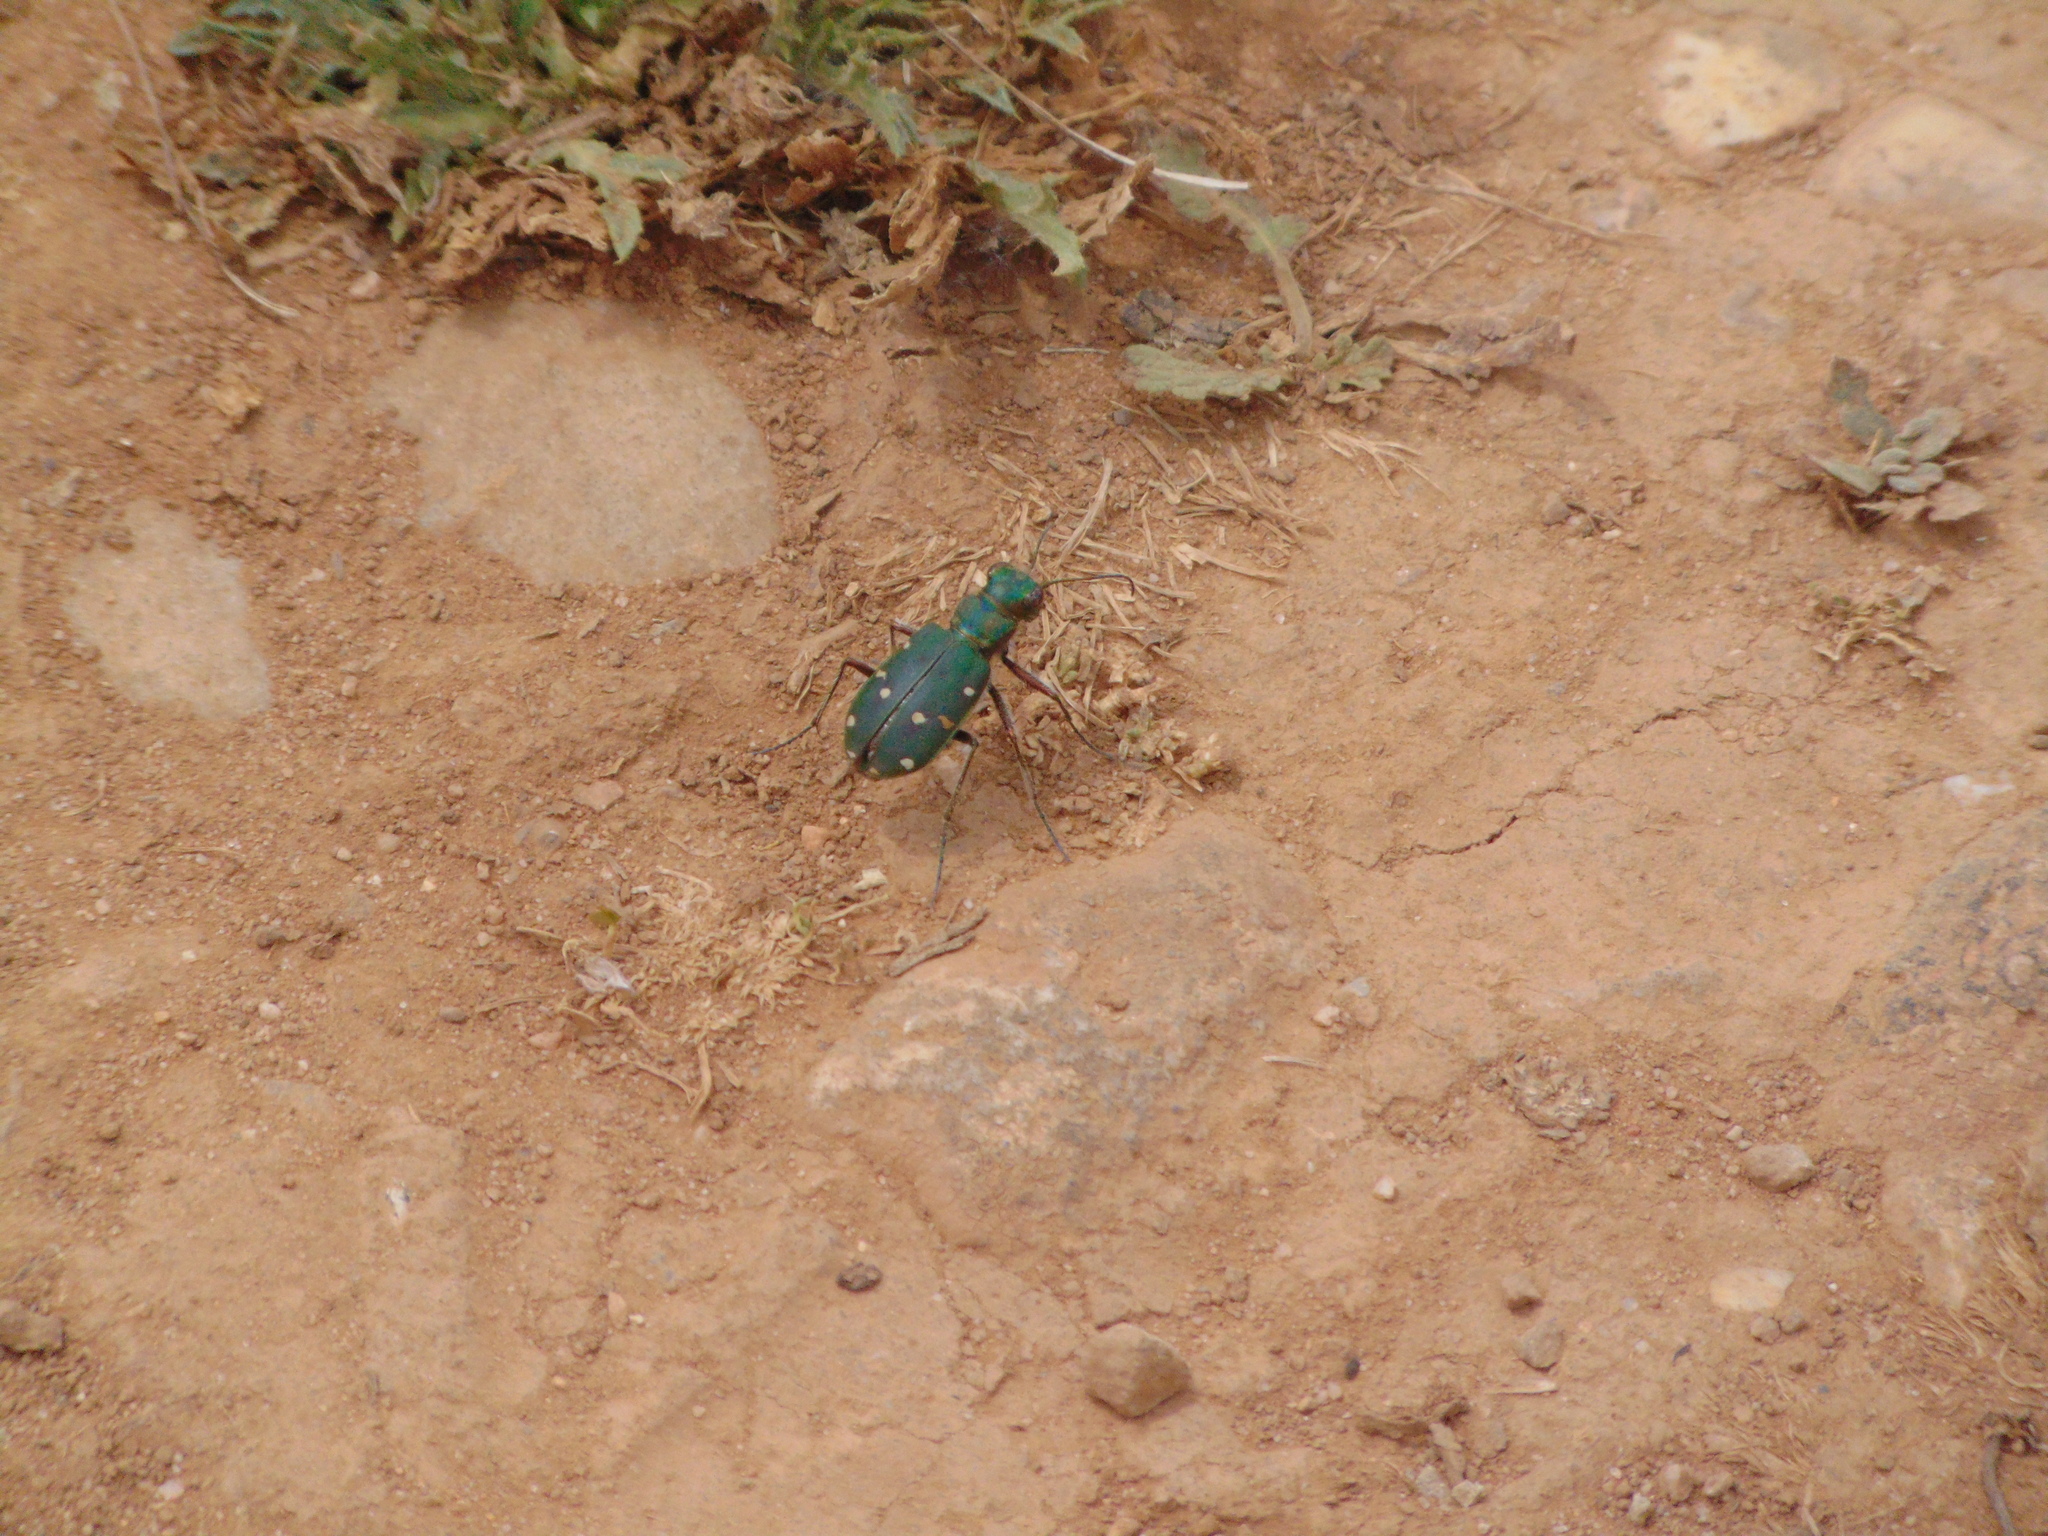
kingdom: Animalia
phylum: Arthropoda
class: Insecta
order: Coleoptera
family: Carabidae
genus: Cicindela
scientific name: Cicindela maroccana
